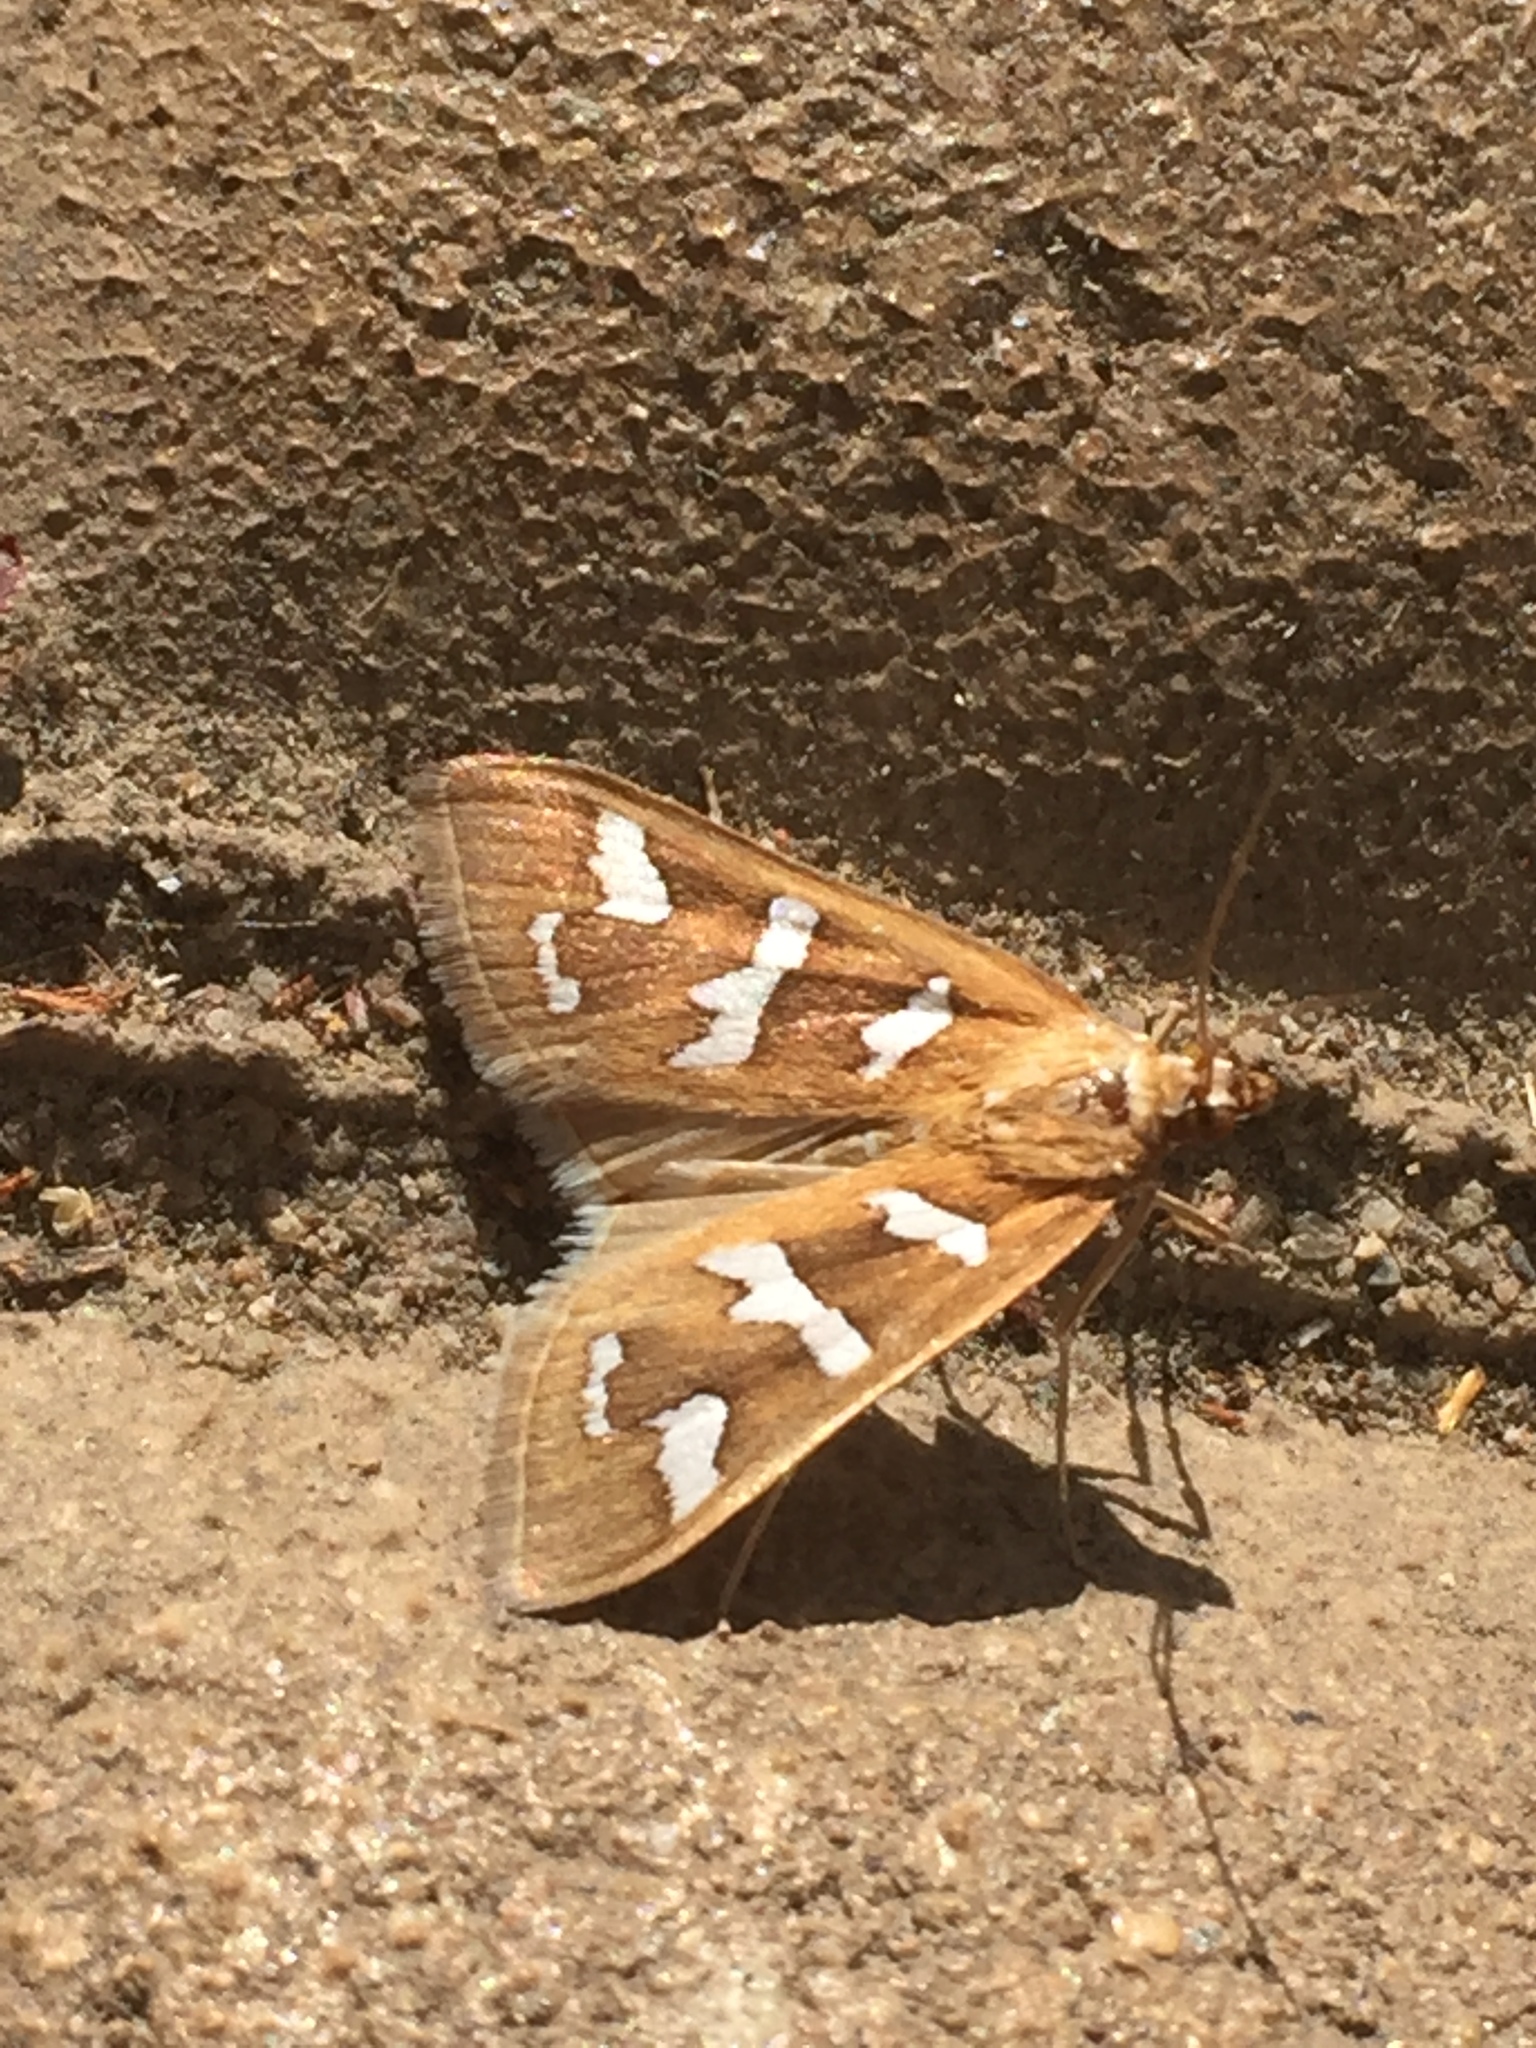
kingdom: Animalia
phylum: Arthropoda
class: Insecta
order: Lepidoptera
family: Crambidae
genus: Diastictis
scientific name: Diastictis fracturalis
